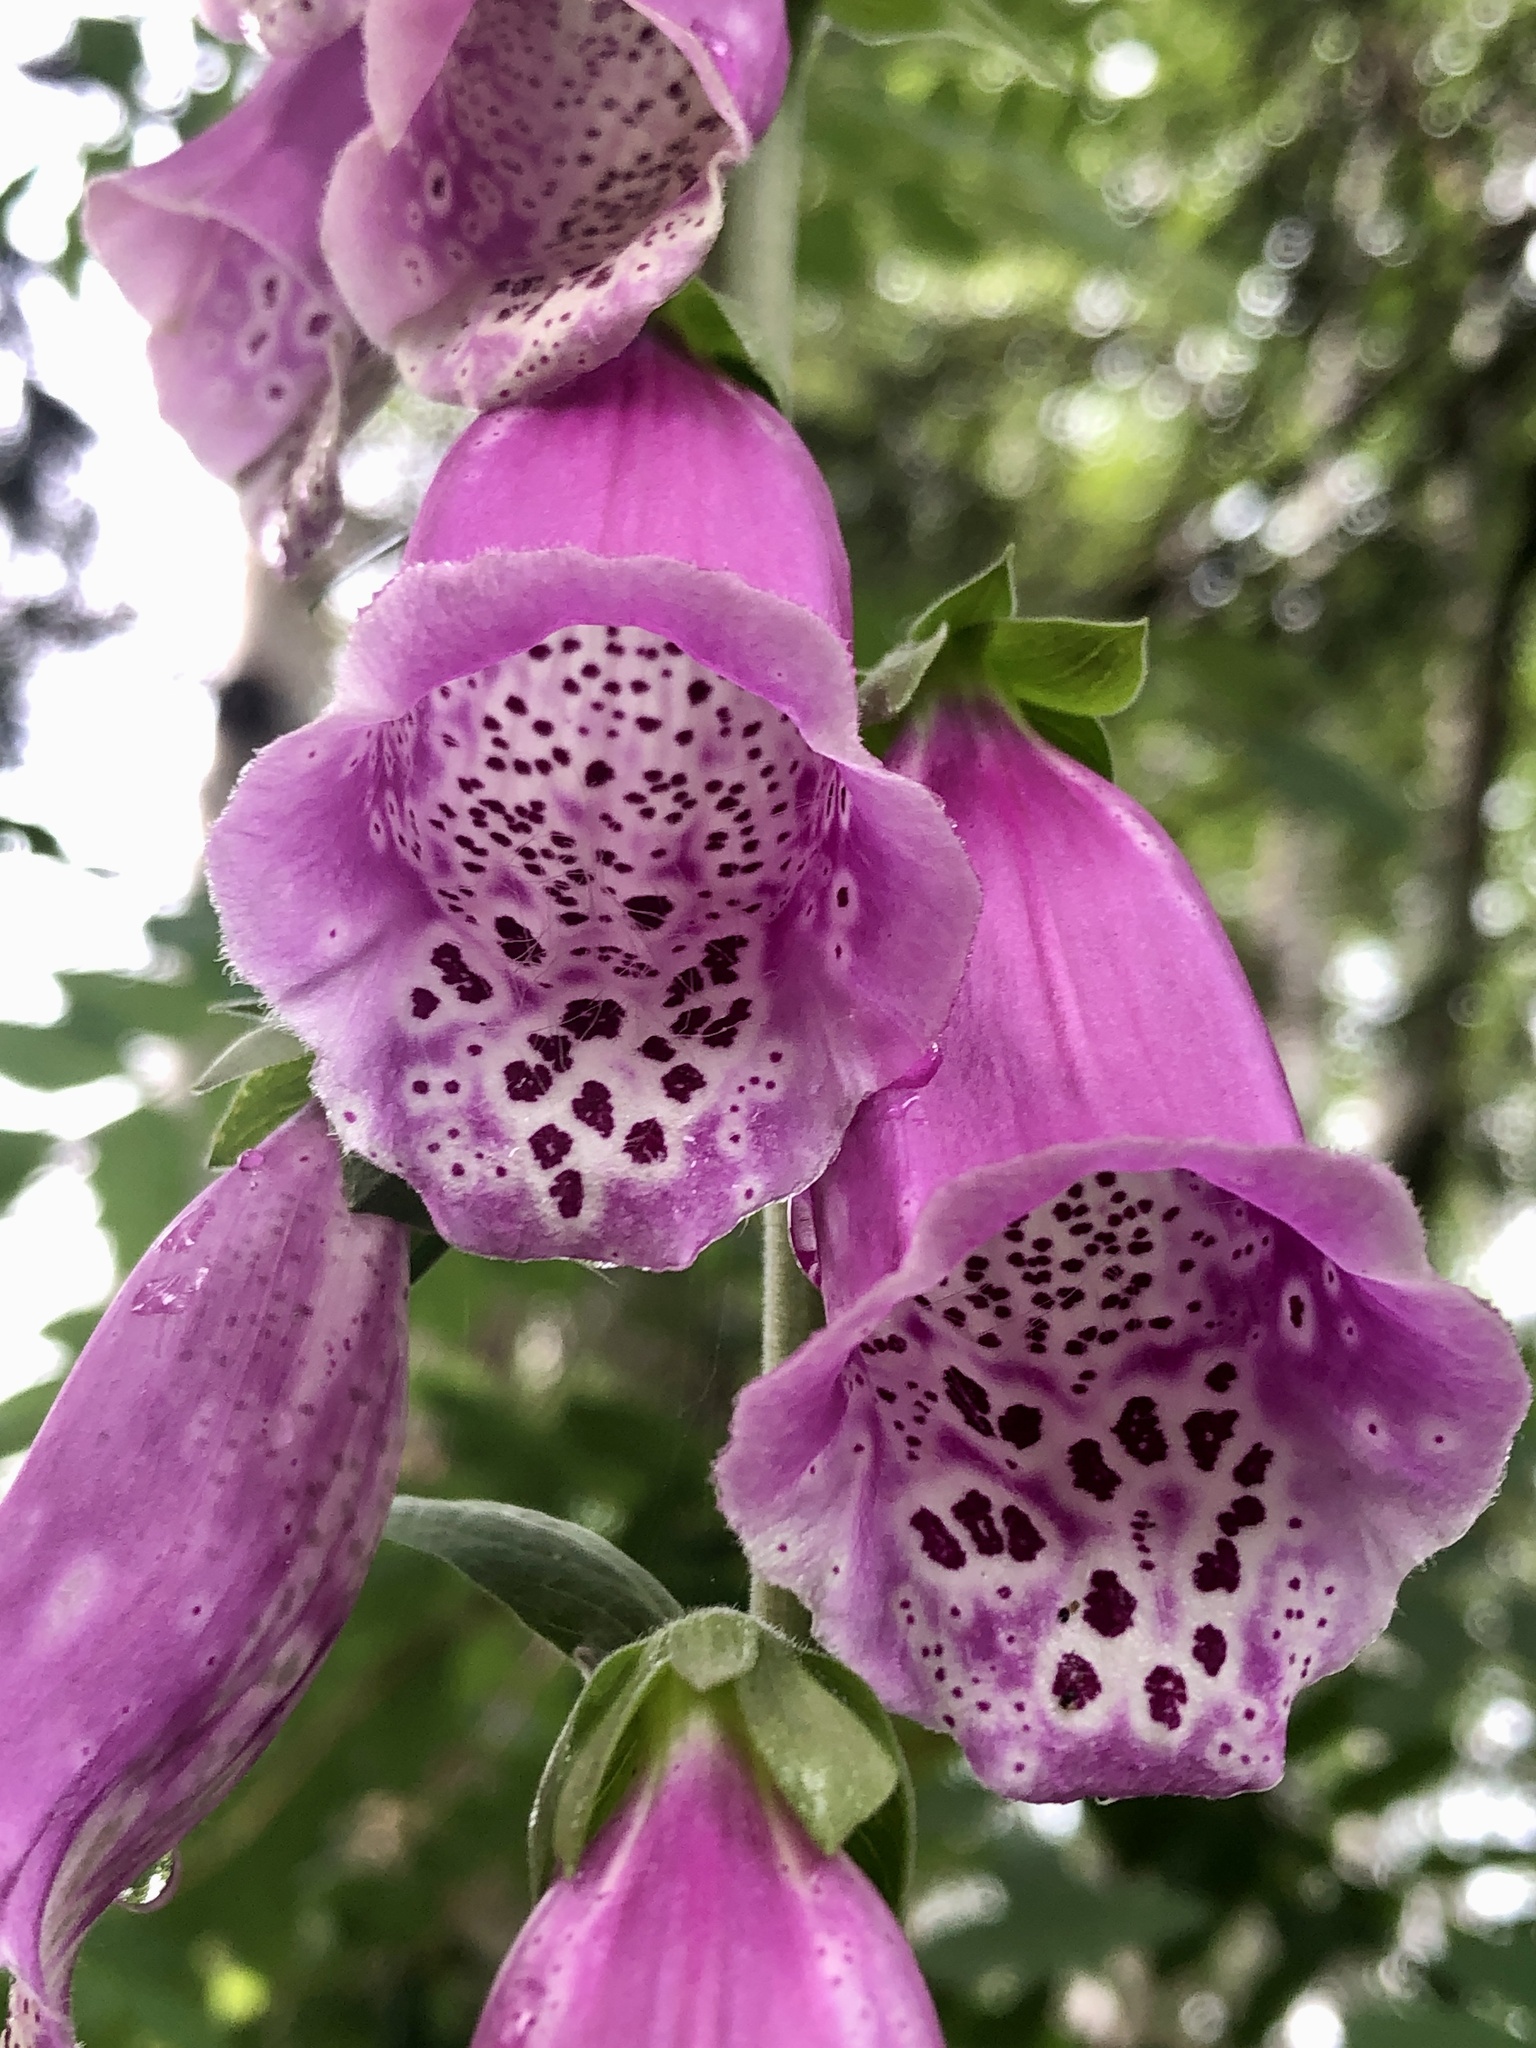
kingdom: Plantae
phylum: Tracheophyta
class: Magnoliopsida
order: Lamiales
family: Plantaginaceae
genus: Digitalis
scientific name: Digitalis purpurea
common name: Foxglove
